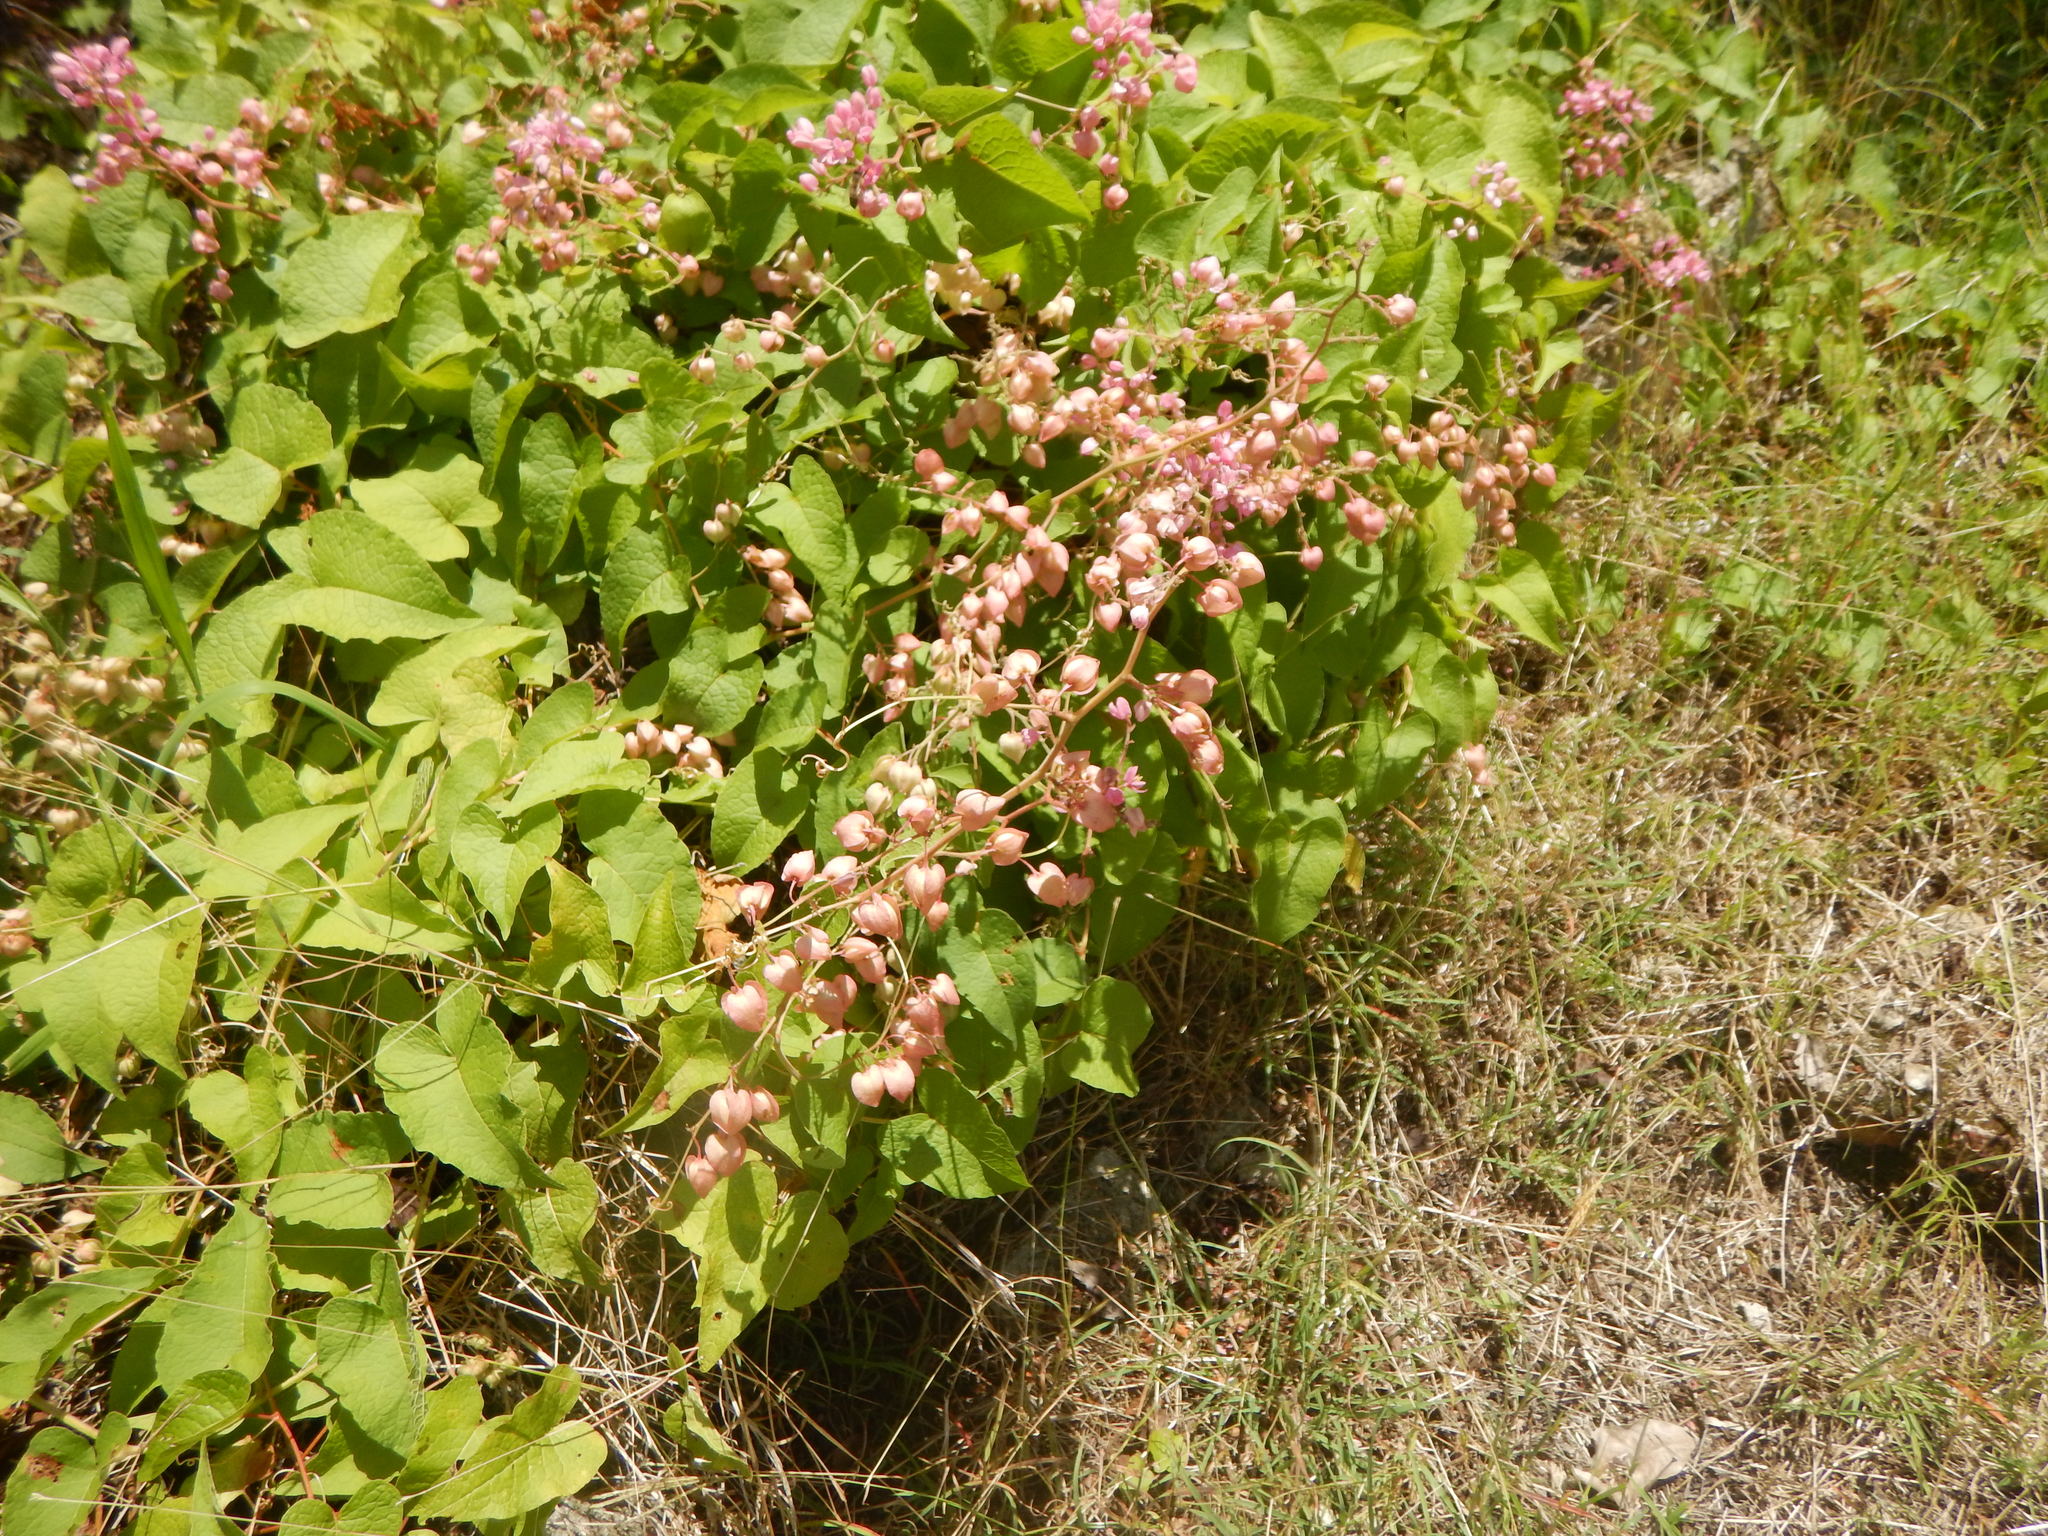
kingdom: Plantae
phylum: Tracheophyta
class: Magnoliopsida
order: Caryophyllales
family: Polygonaceae
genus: Antigonon
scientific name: Antigonon leptopus
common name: Coral vine
